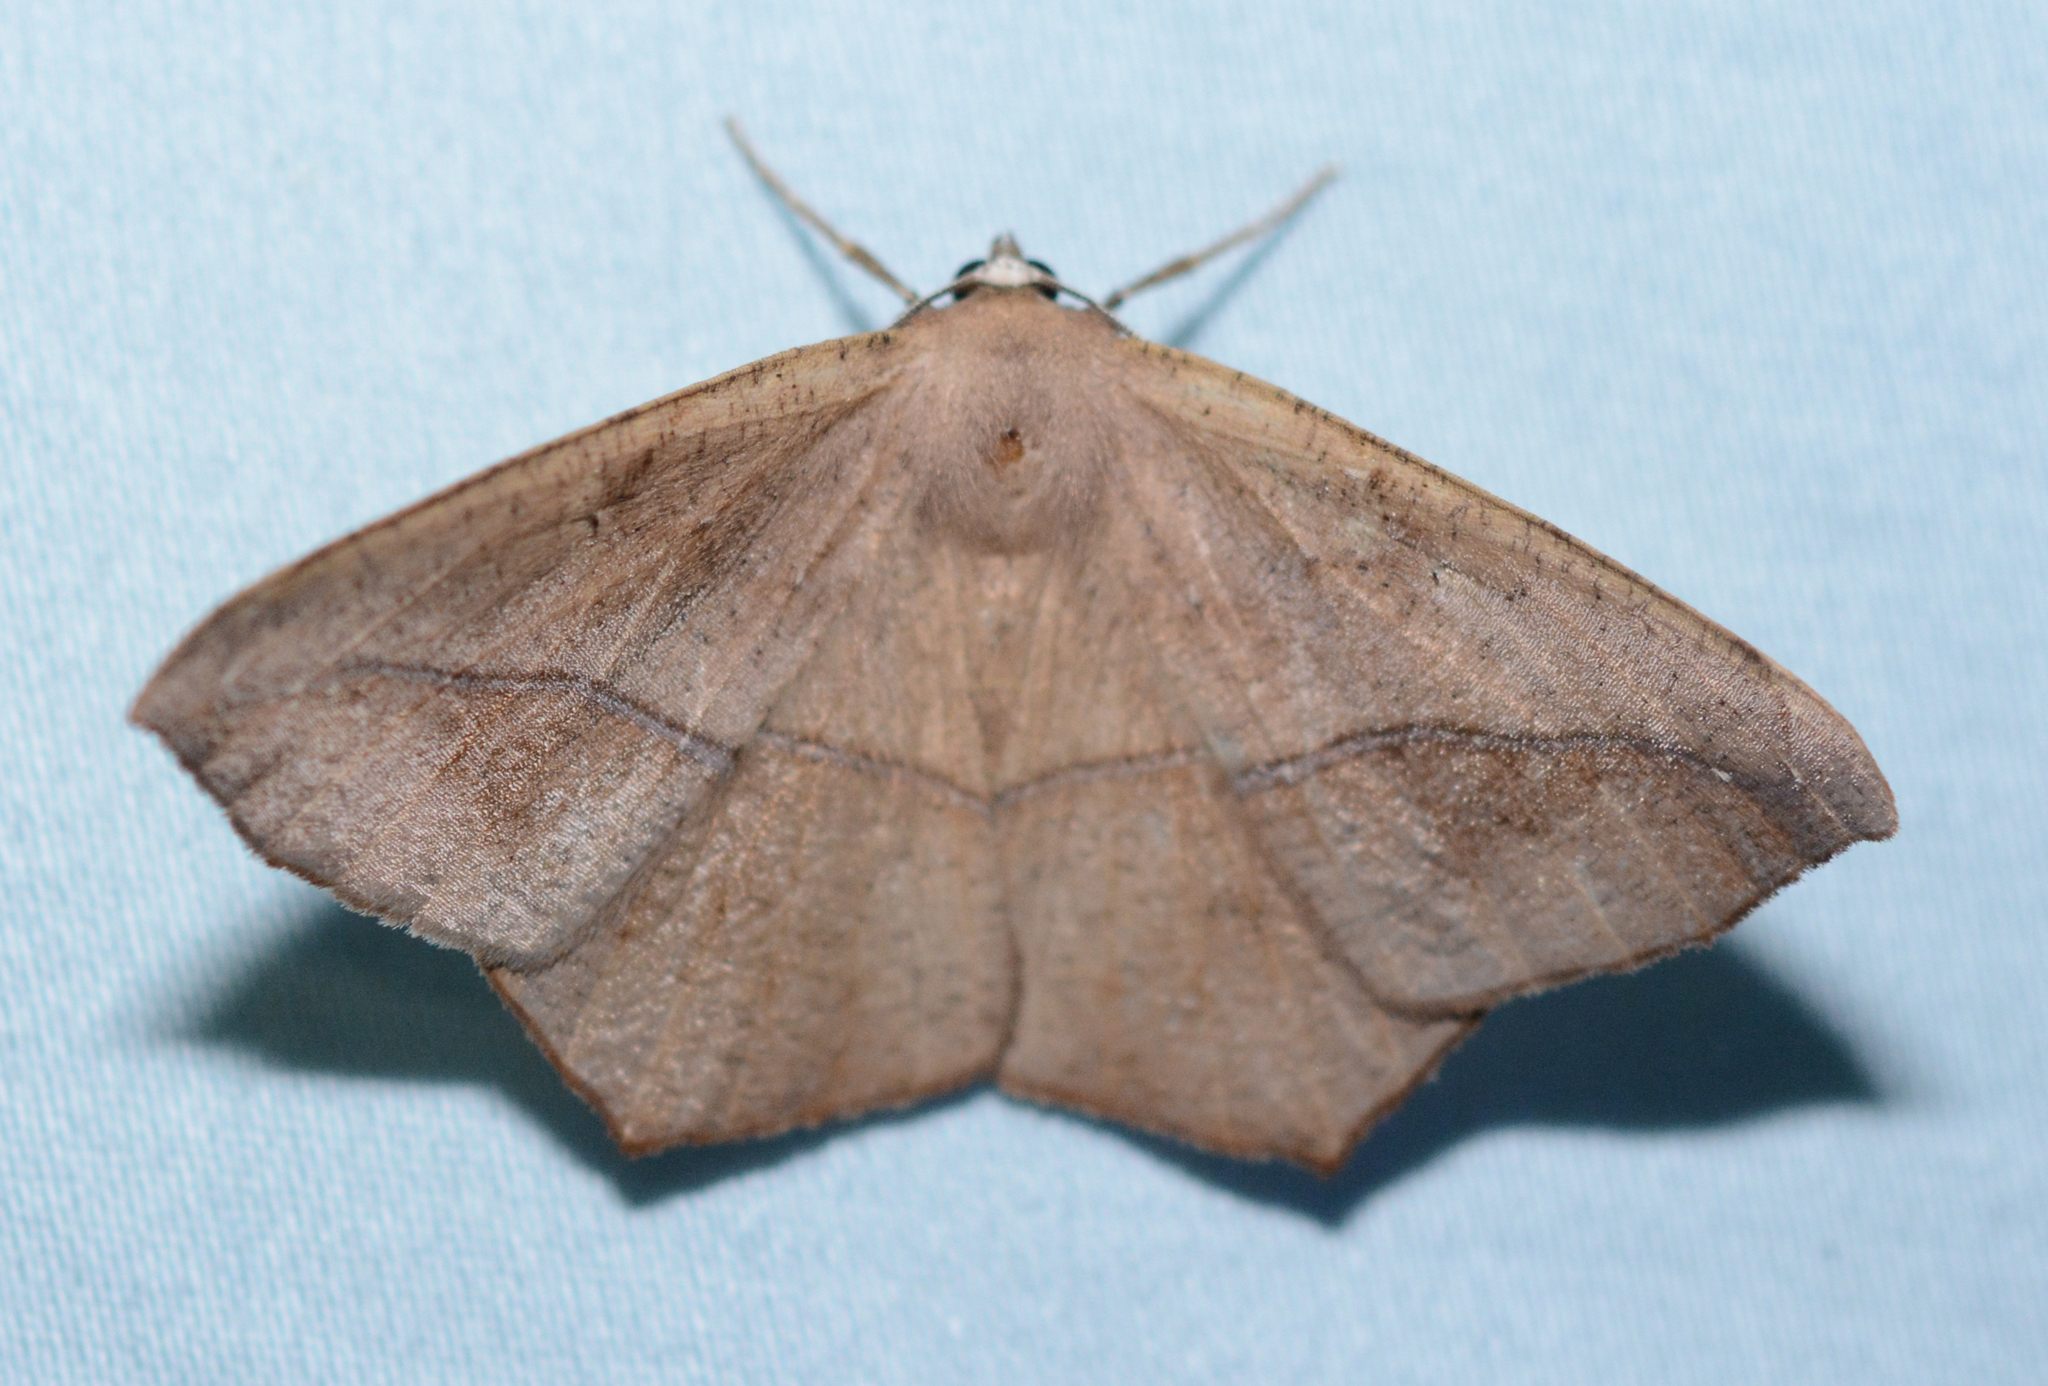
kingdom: Animalia
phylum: Arthropoda
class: Insecta
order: Lepidoptera
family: Geometridae
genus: Prochoerodes
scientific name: Prochoerodes lineola
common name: Large maple spanworm
